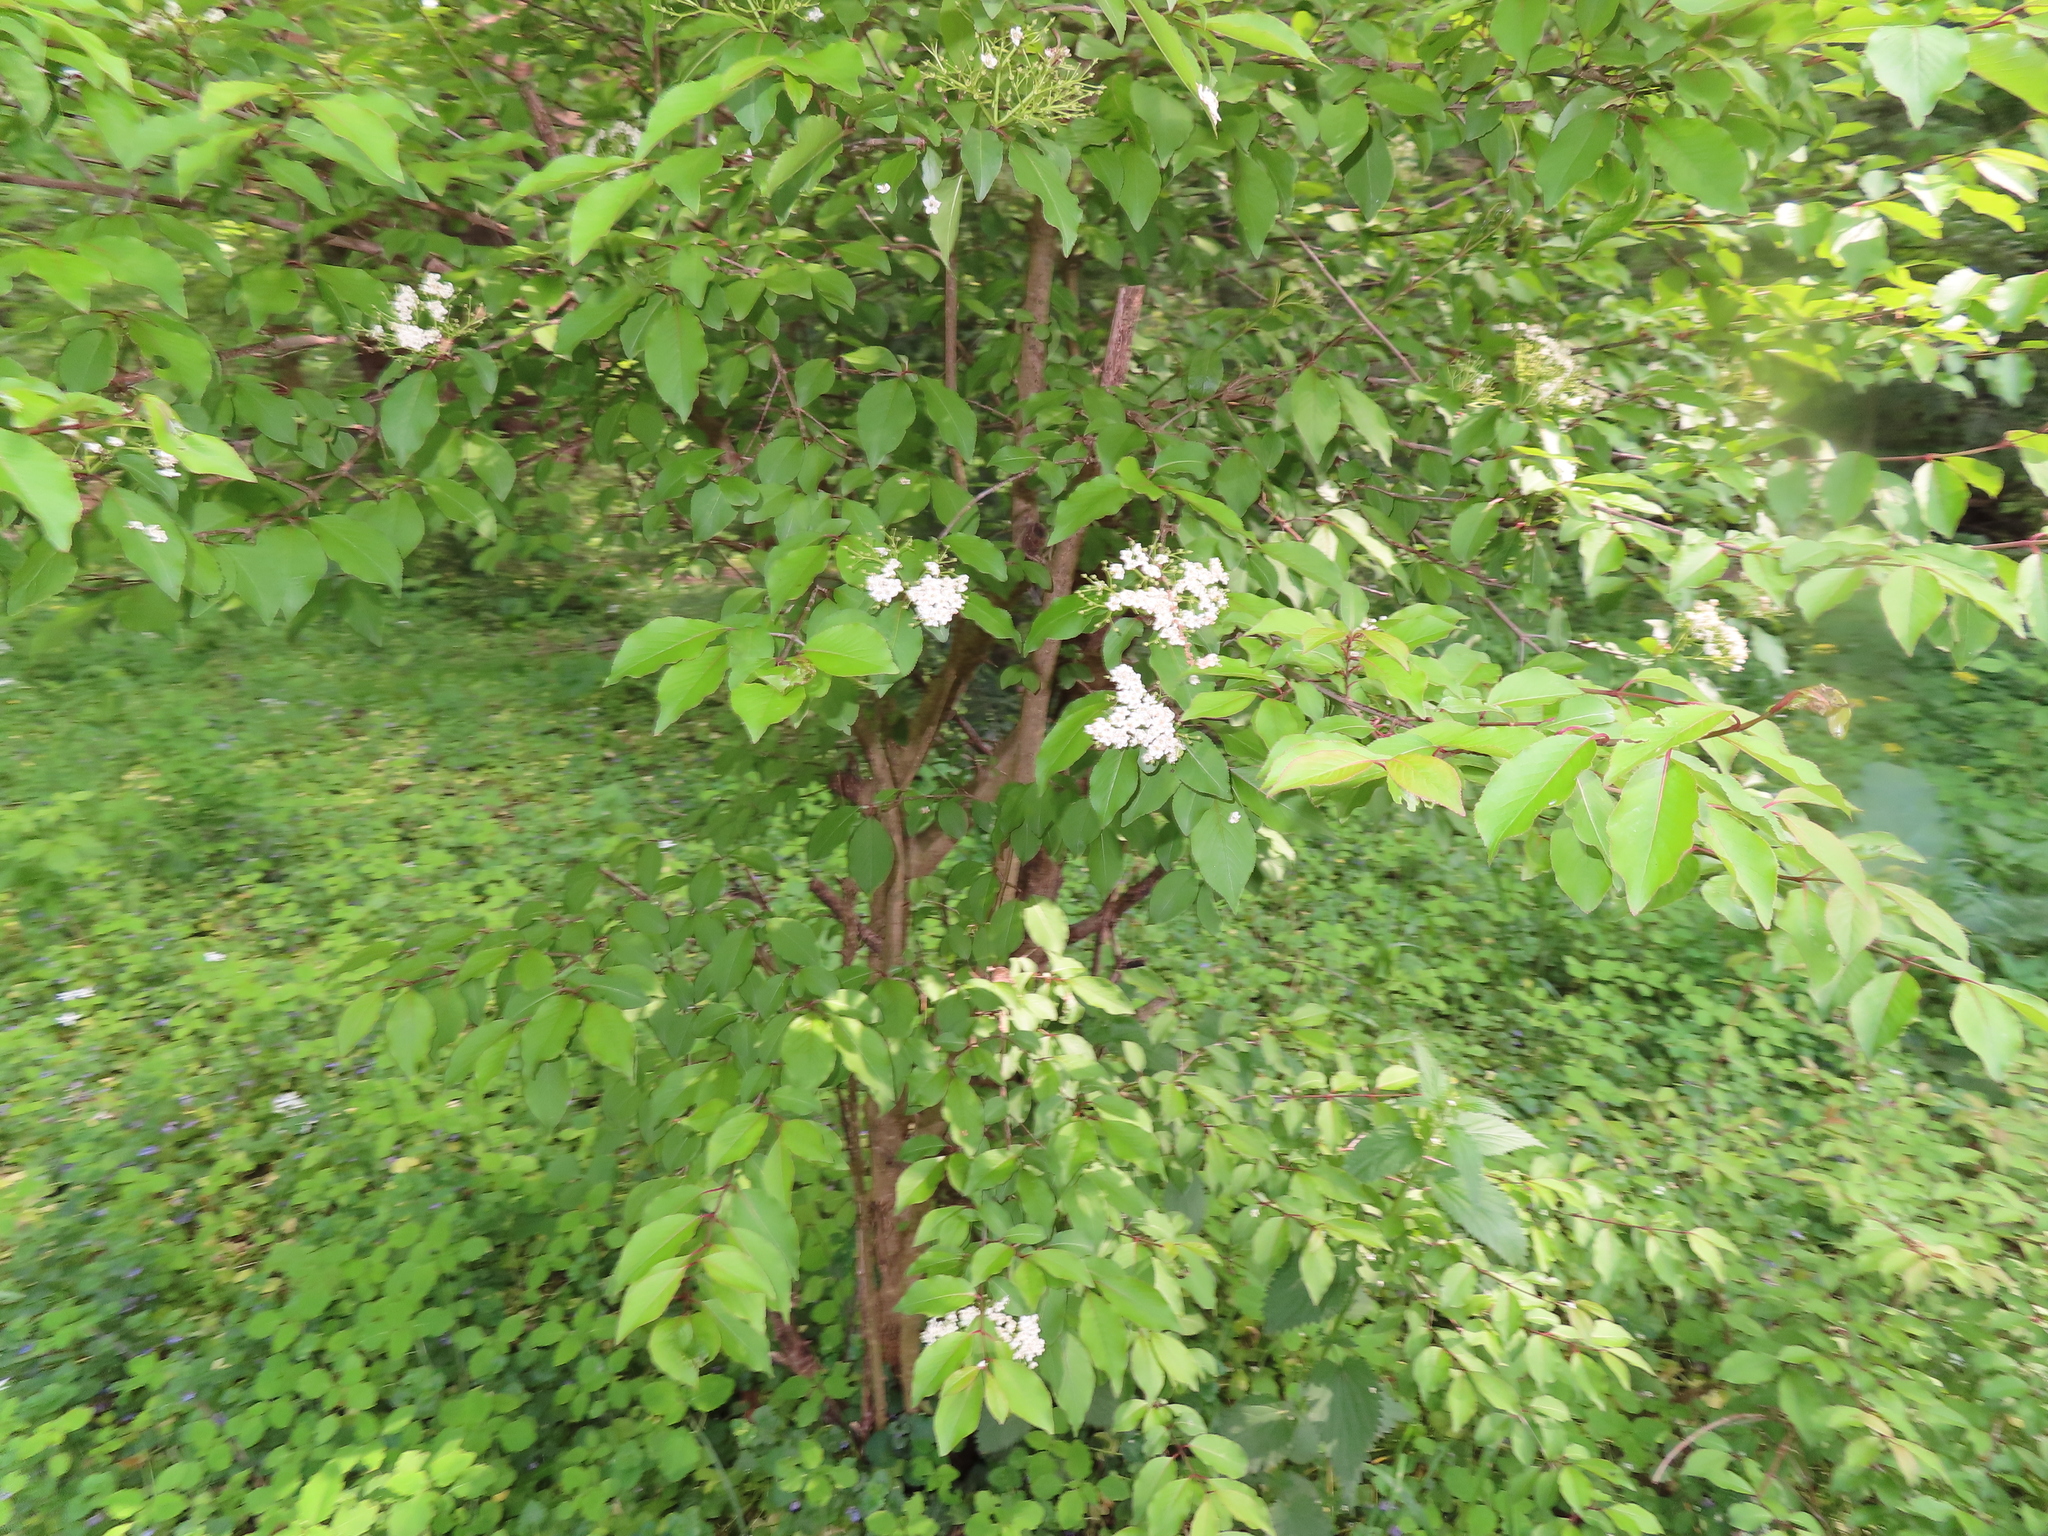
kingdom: Plantae
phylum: Tracheophyta
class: Magnoliopsida
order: Dipsacales
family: Viburnaceae
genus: Viburnum
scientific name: Viburnum prunifolium
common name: Black haw
